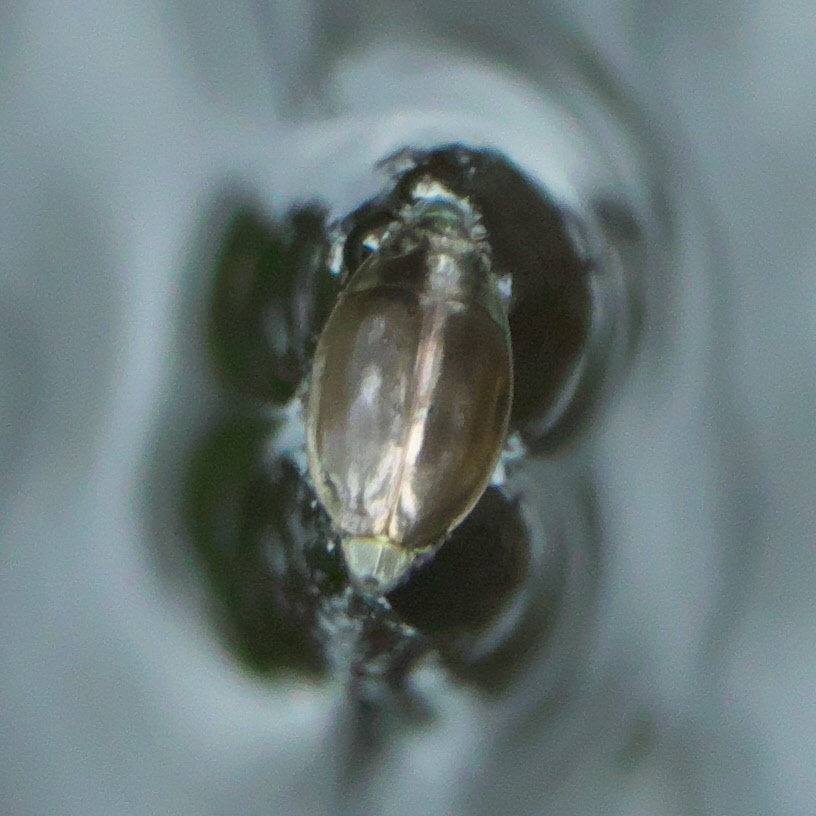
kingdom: Animalia
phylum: Arthropoda
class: Insecta
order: Coleoptera
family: Gyrinidae
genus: Dineutus
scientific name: Dineutus
